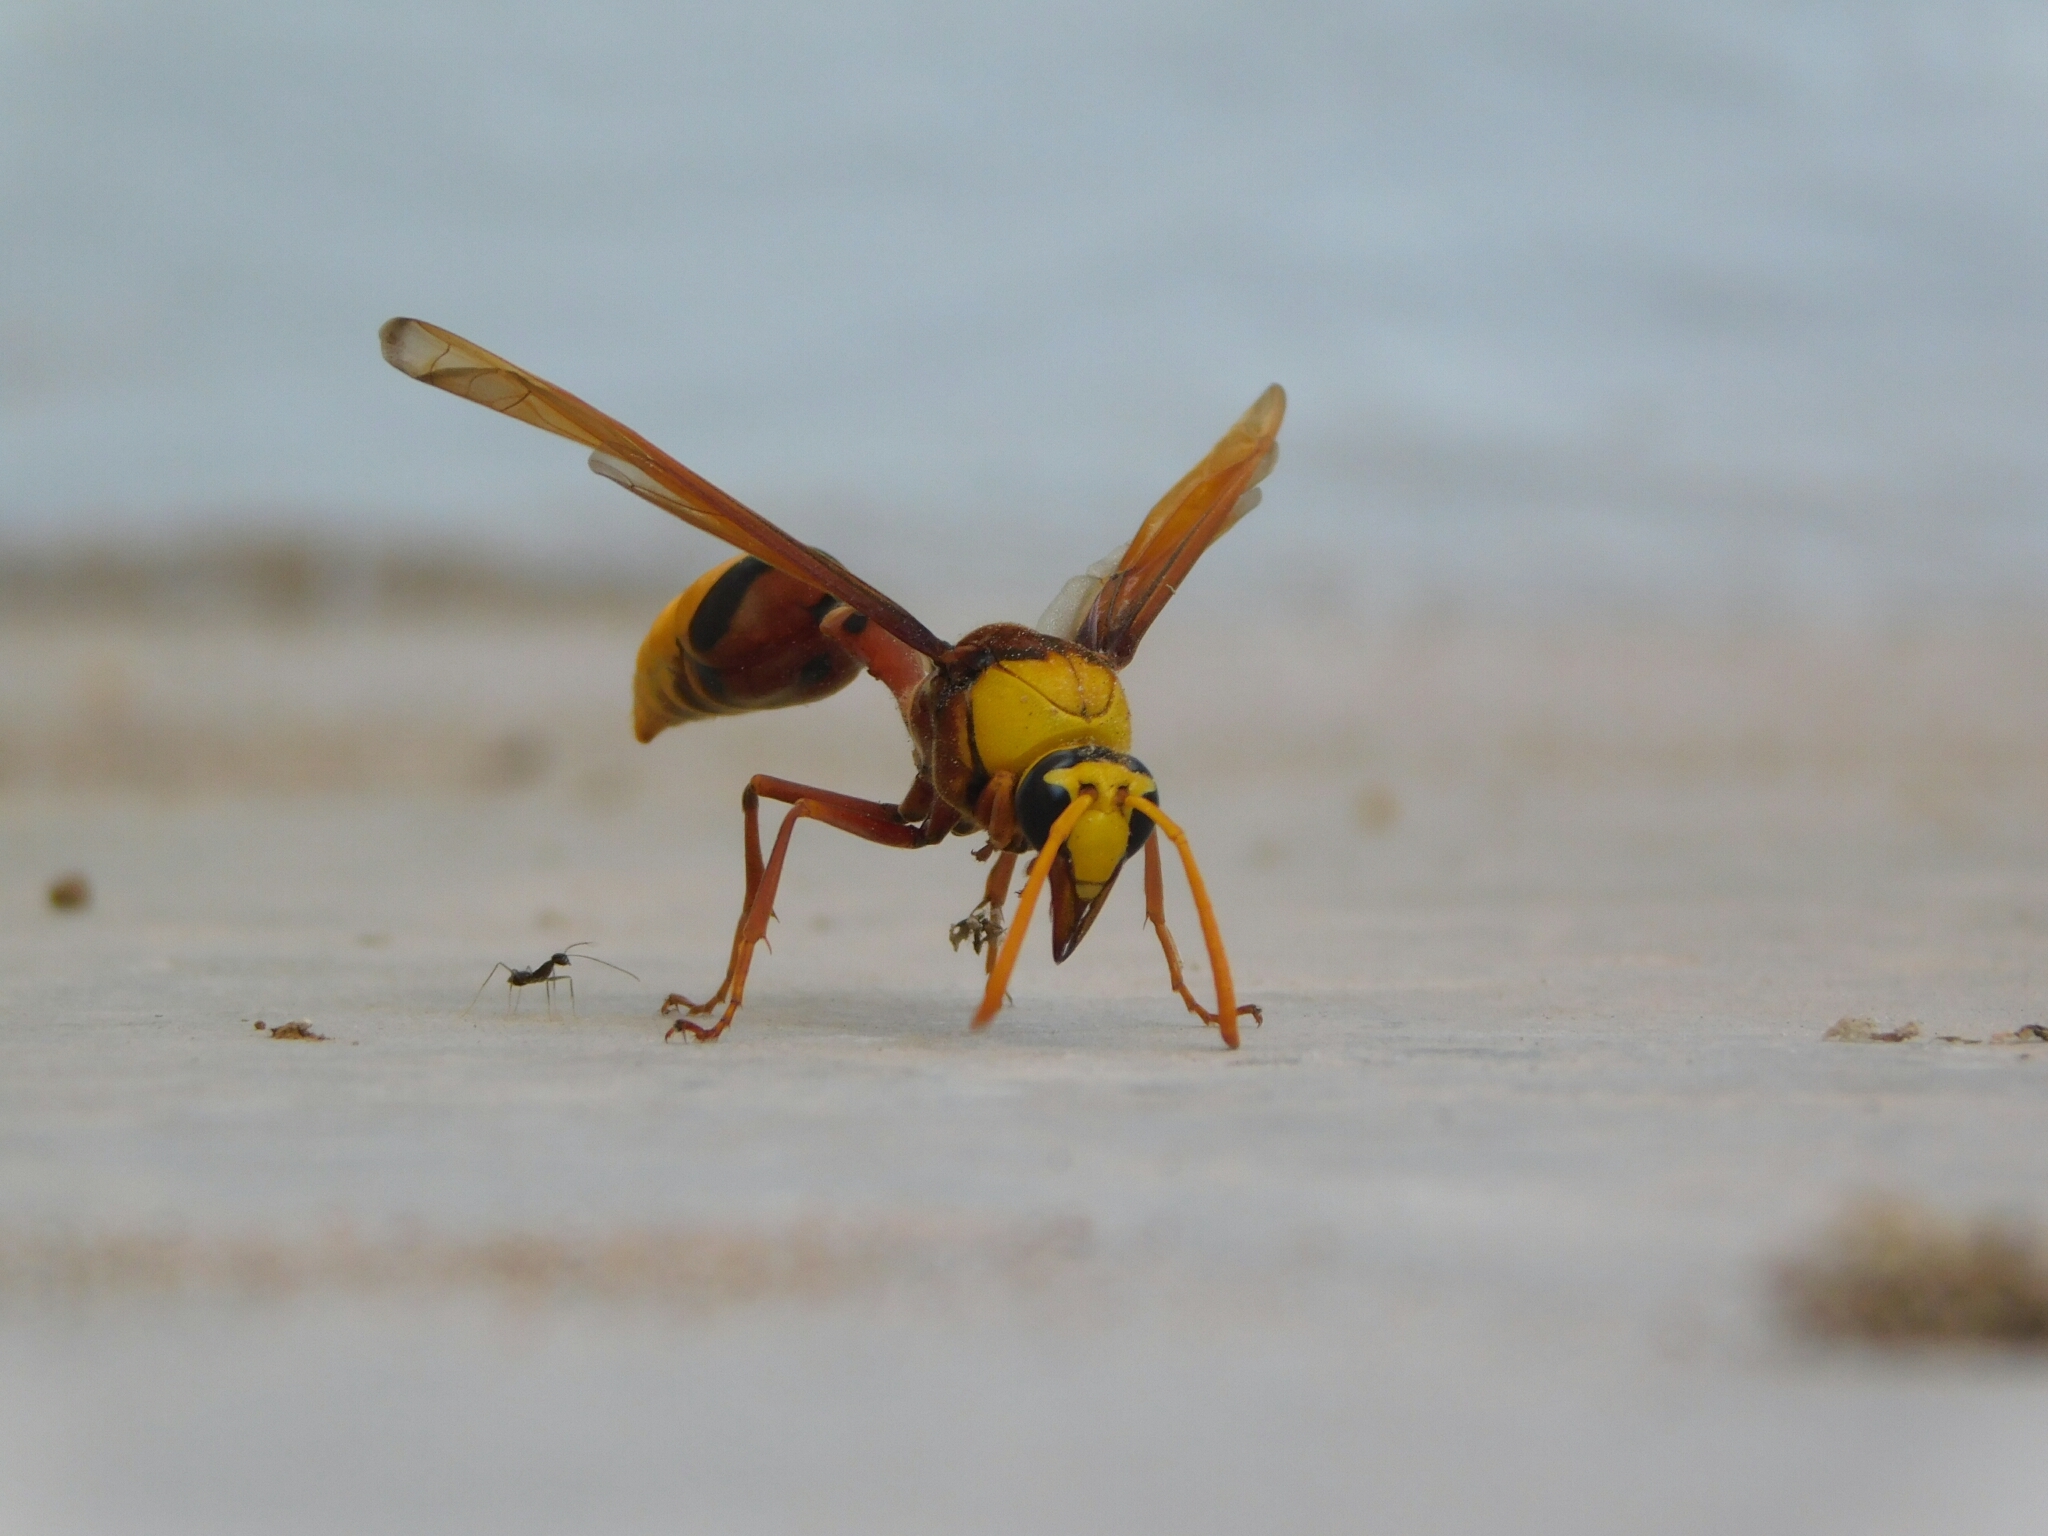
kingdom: Animalia
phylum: Arthropoda
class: Insecta
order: Hymenoptera
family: Eumenidae
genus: Delta
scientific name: Delta pyriforme
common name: Wasp
